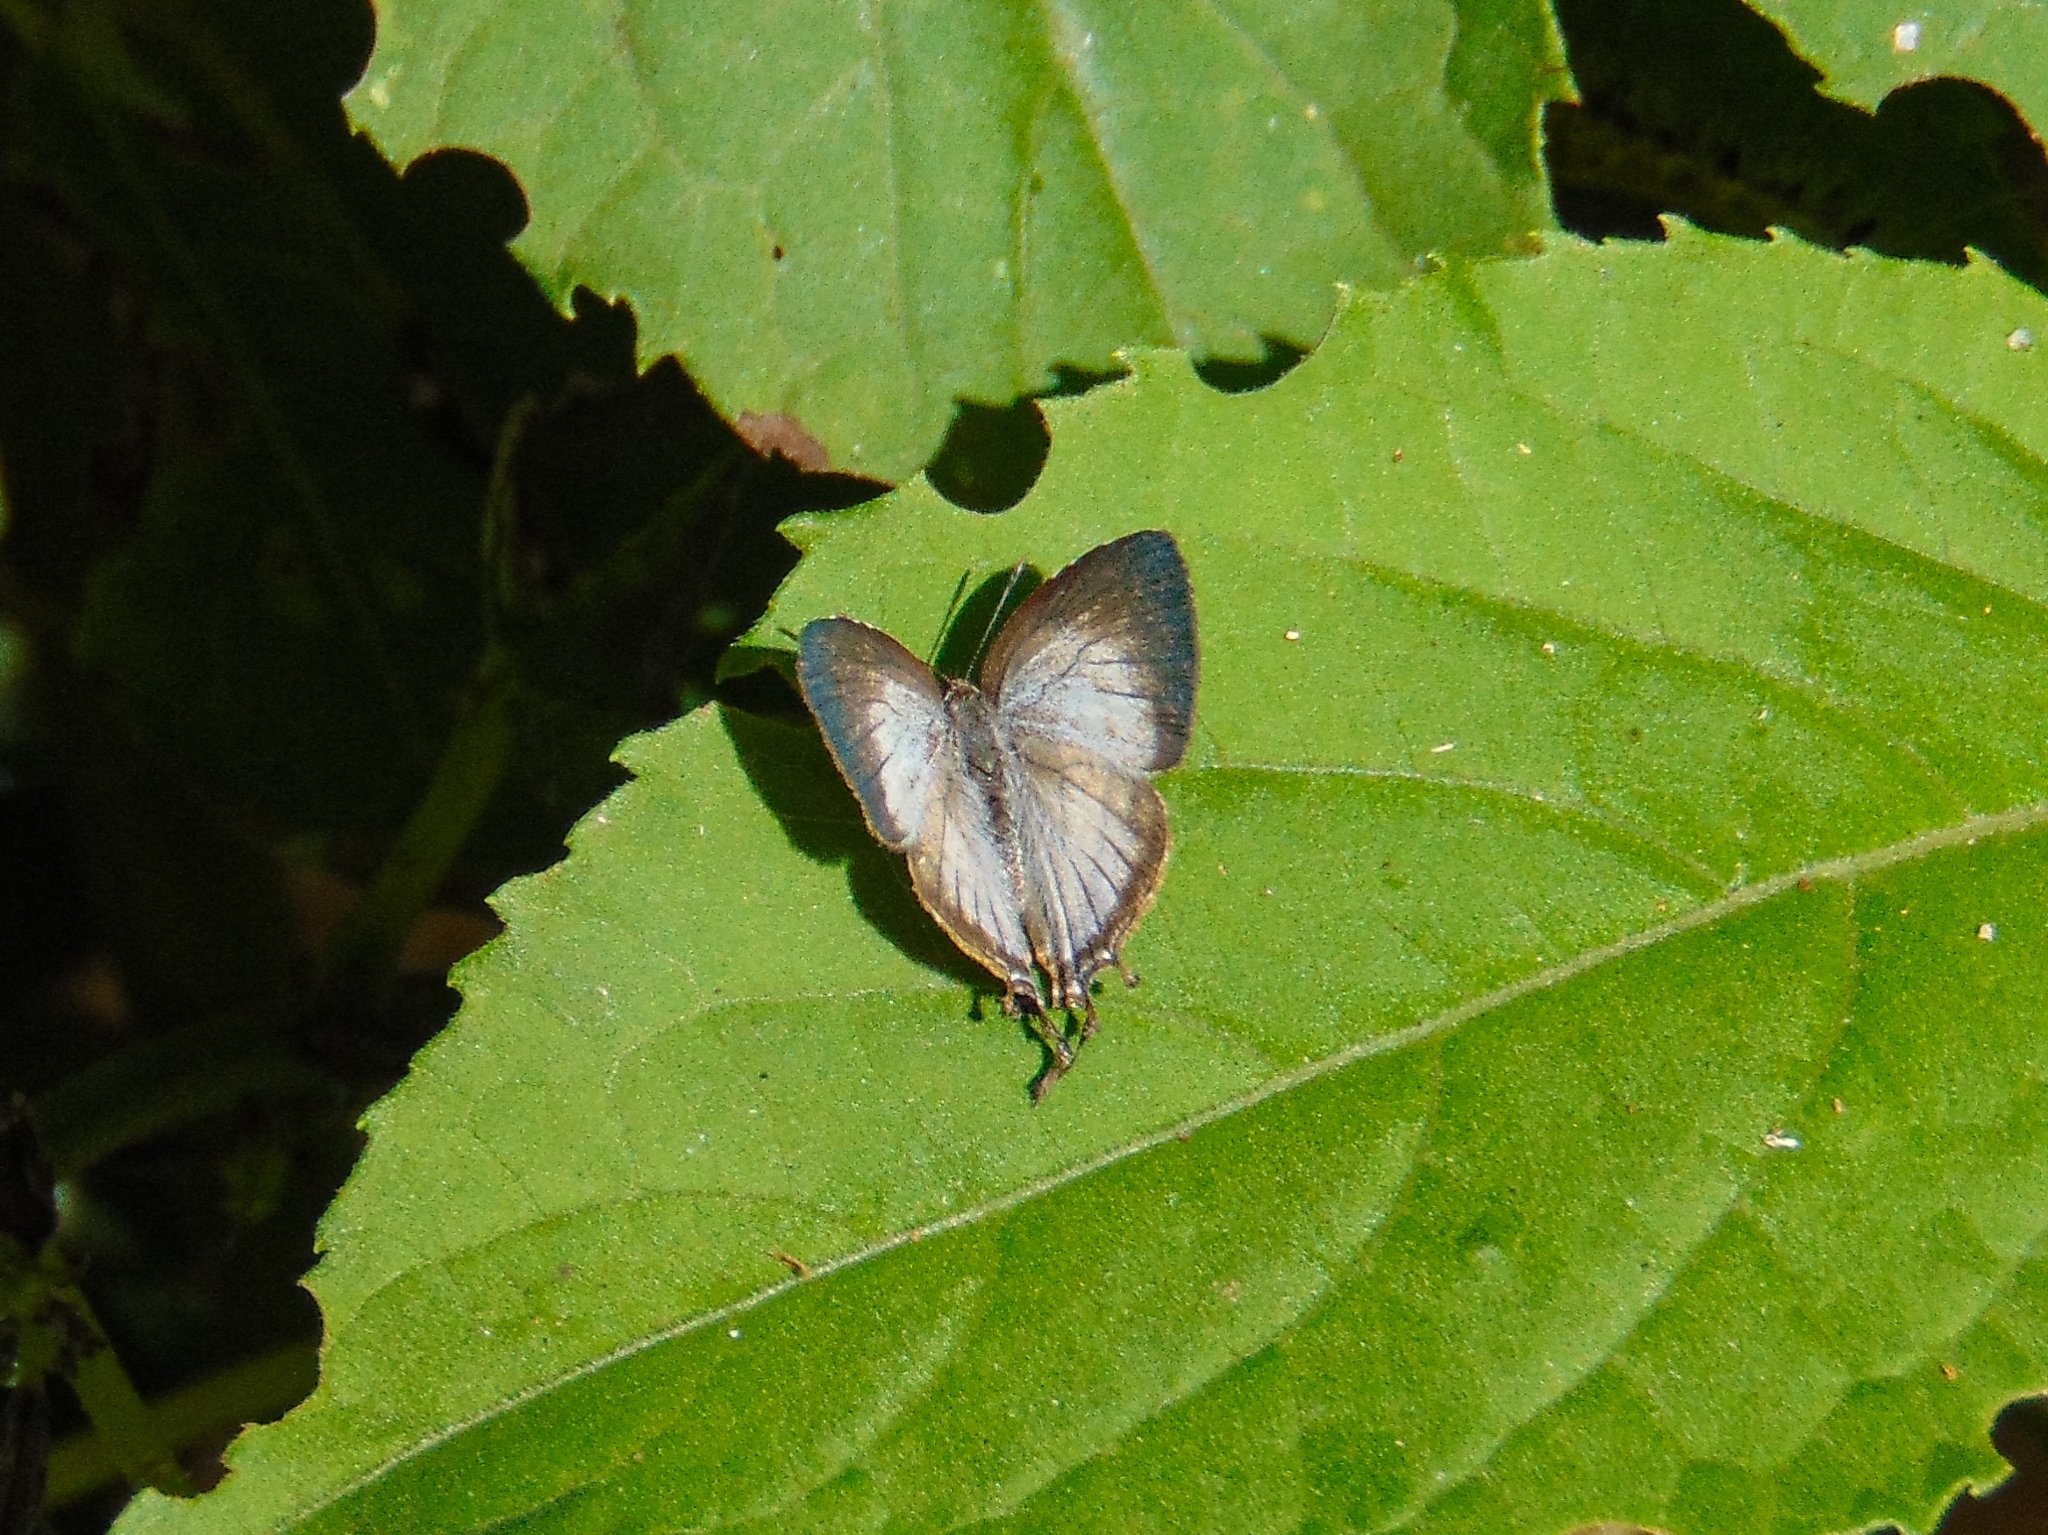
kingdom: Animalia
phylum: Arthropoda
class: Insecta
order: Lepidoptera
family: Lycaenidae
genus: Arawacus
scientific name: Arawacus melibaeus
